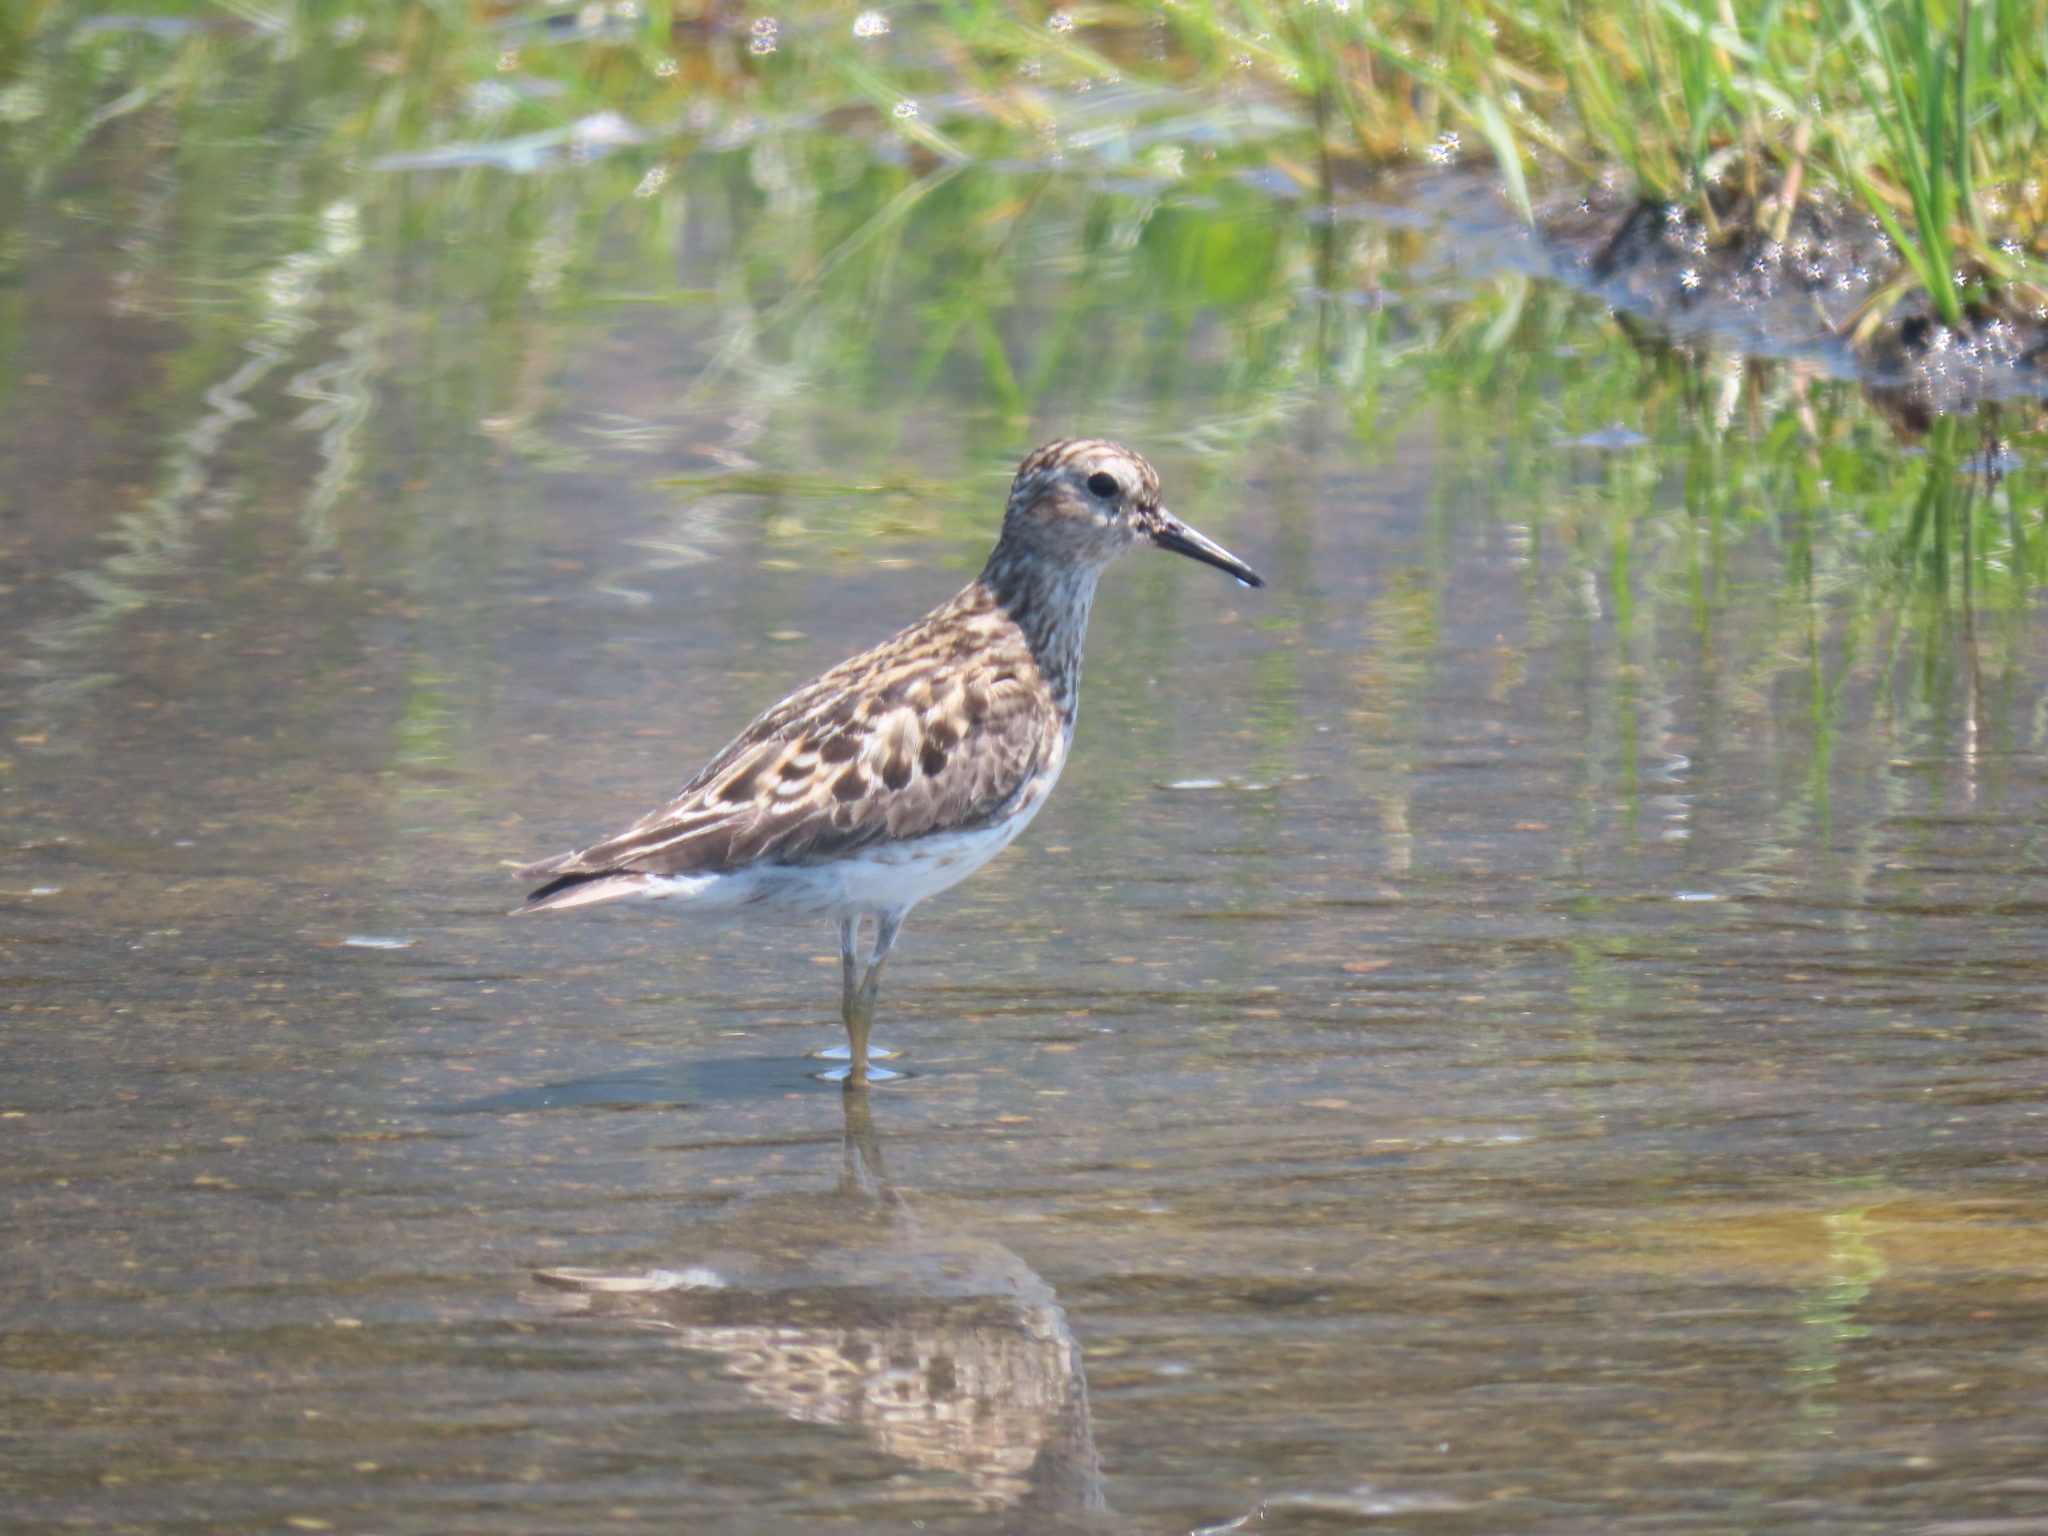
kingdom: Animalia
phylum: Chordata
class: Aves
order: Charadriiformes
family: Scolopacidae
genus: Calidris
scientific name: Calidris minutilla
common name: Least sandpiper
